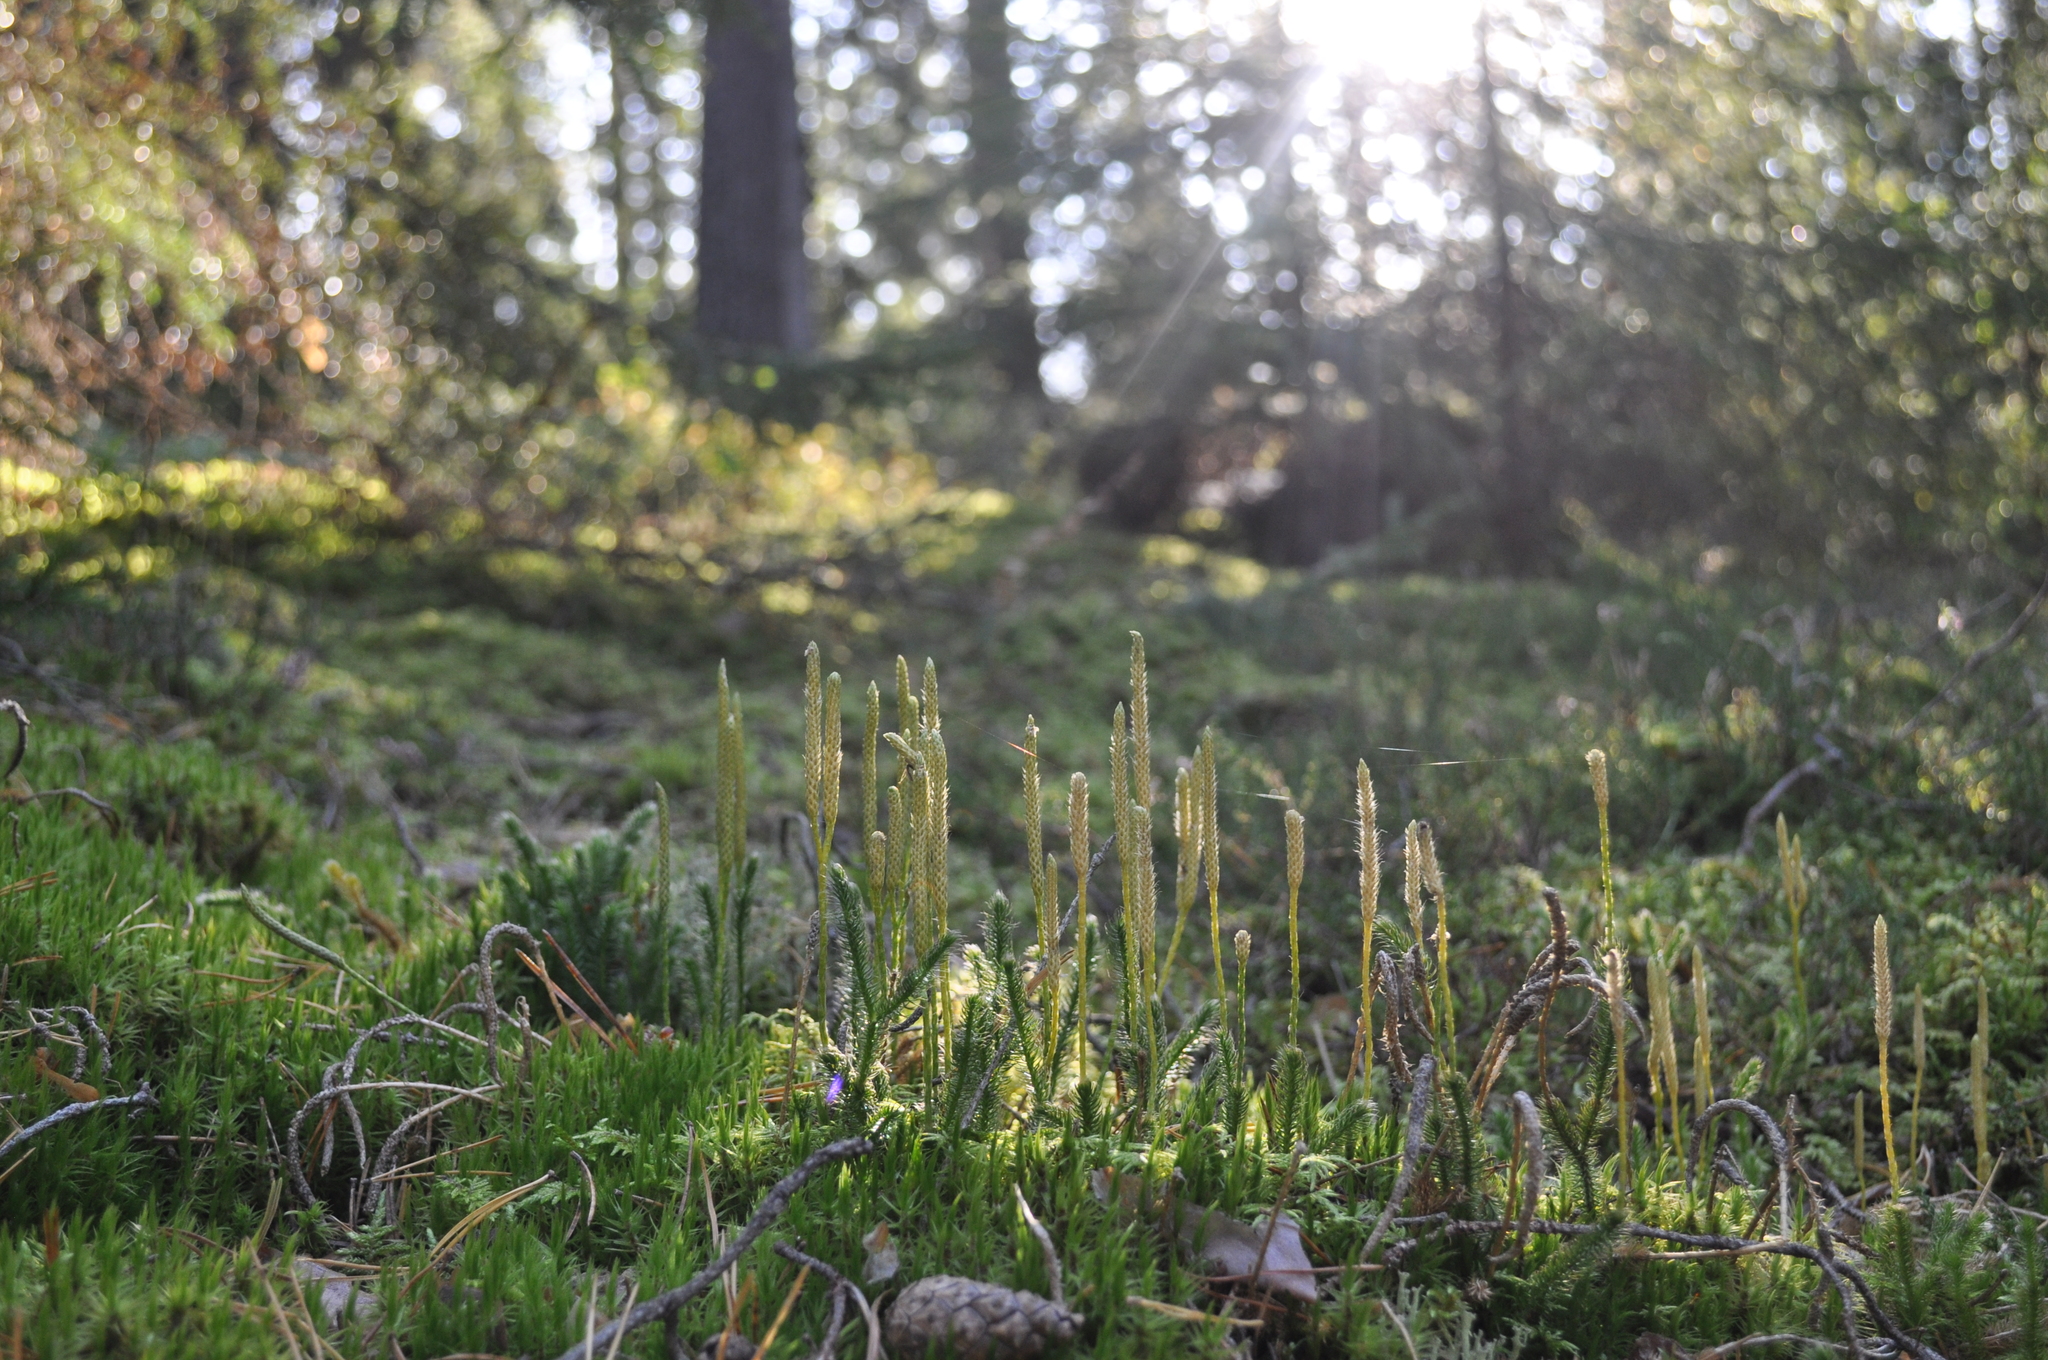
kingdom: Plantae
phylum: Tracheophyta
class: Lycopodiopsida
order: Lycopodiales
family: Lycopodiaceae
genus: Lycopodium
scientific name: Lycopodium clavatum
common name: Stag's-horn clubmoss
